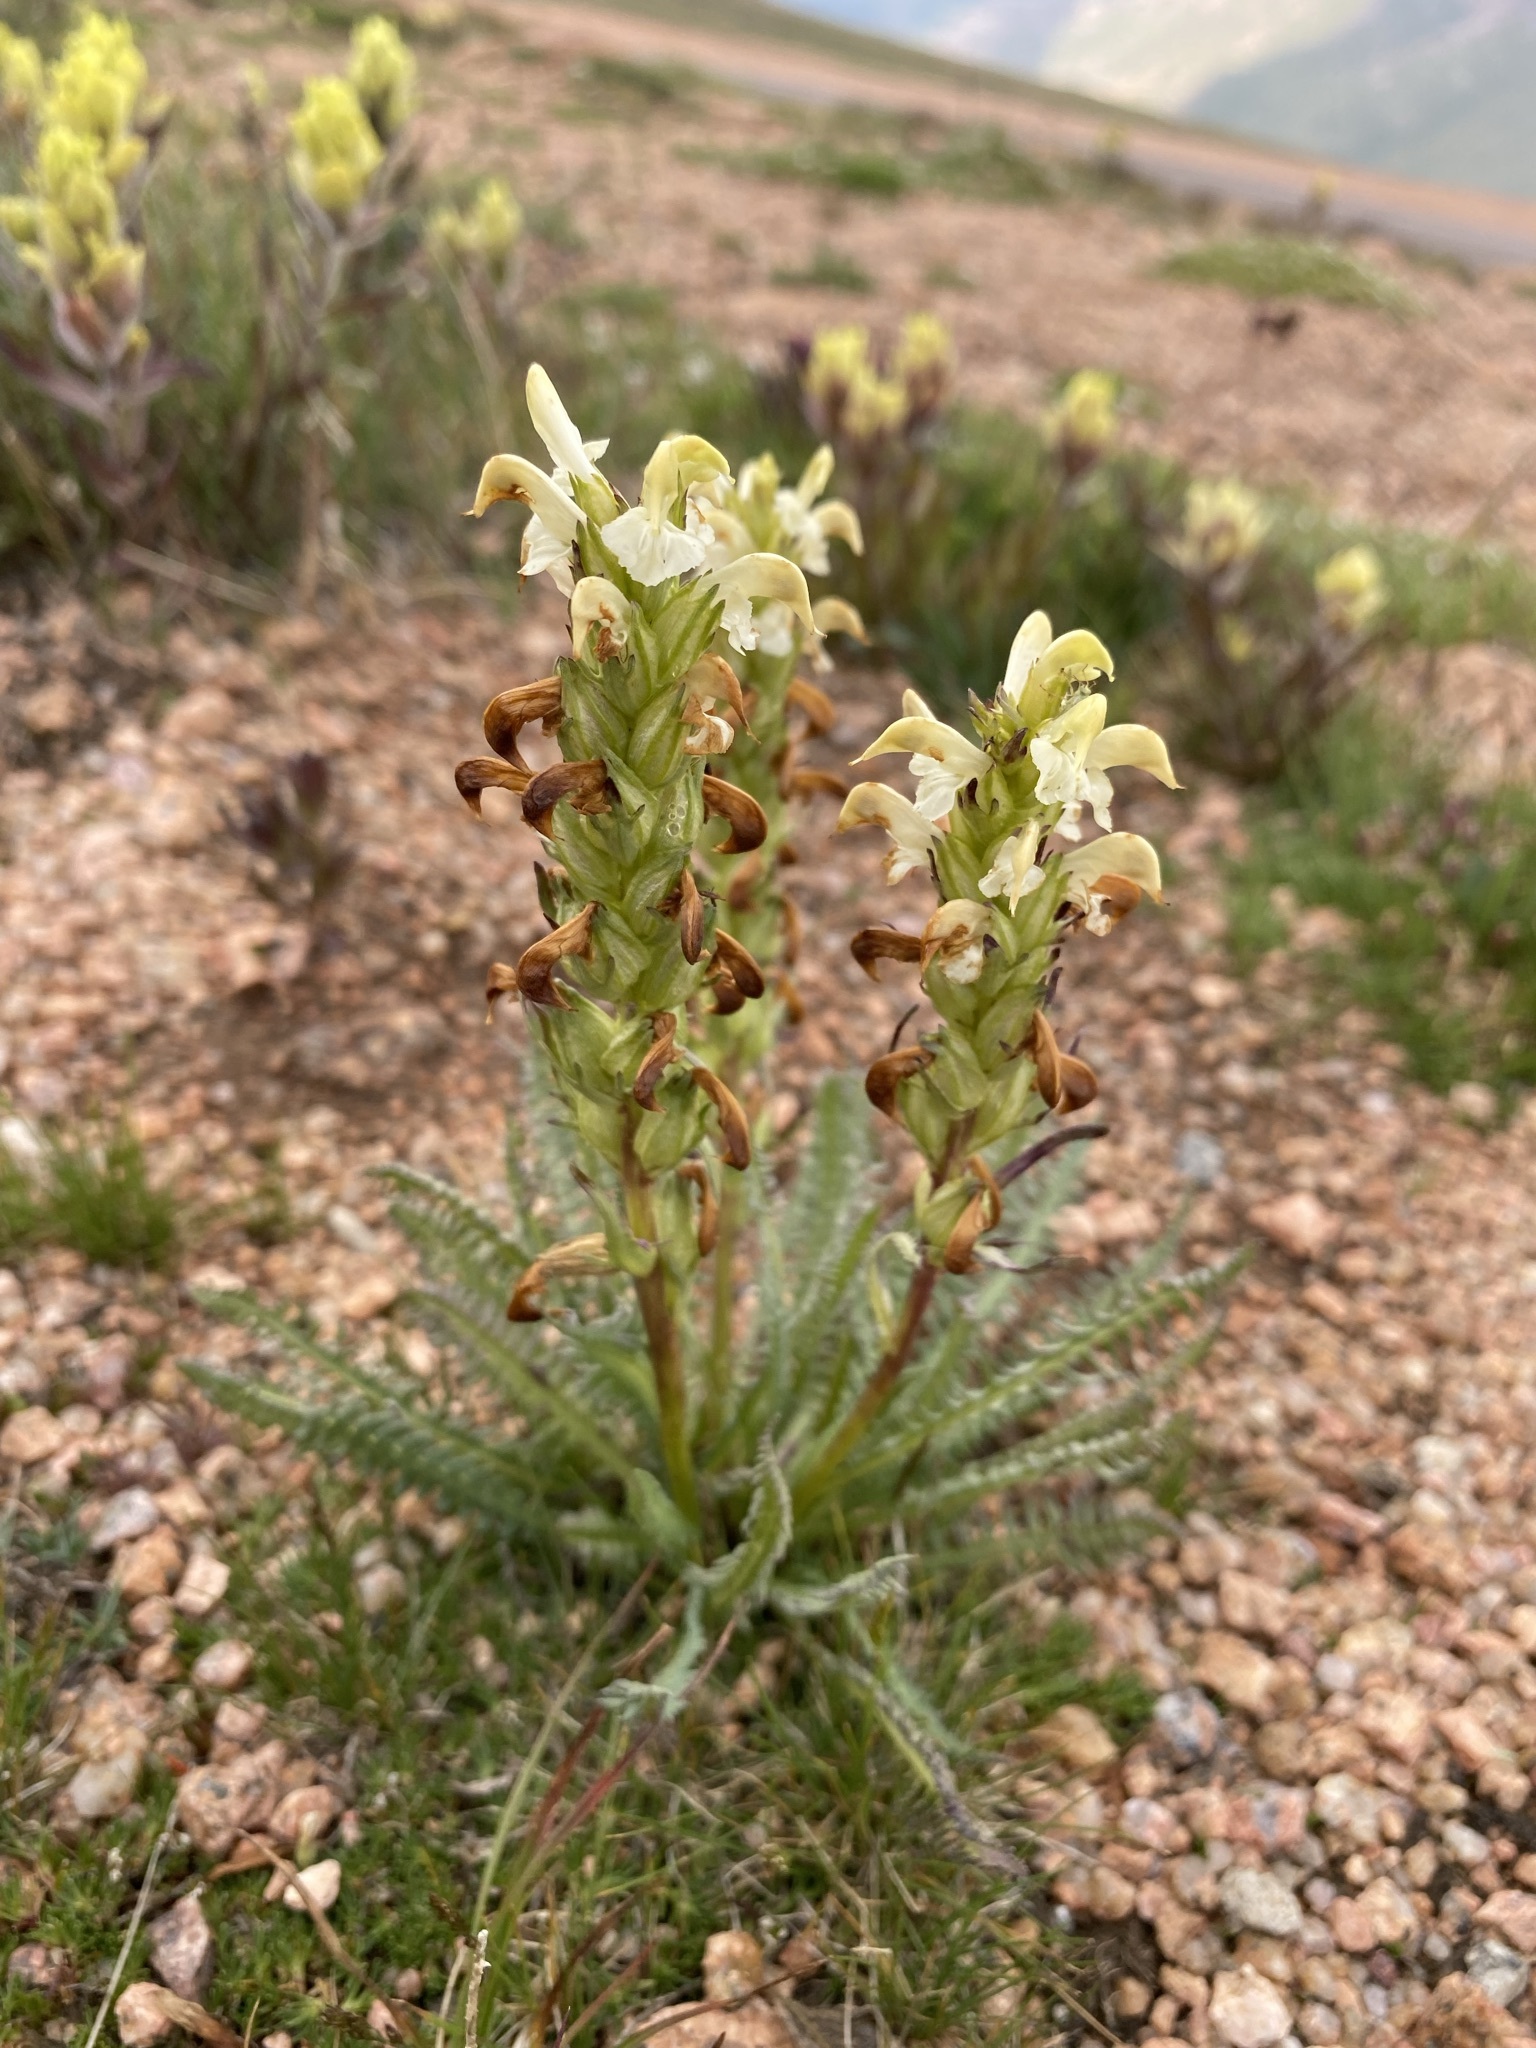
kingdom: Plantae
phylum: Tracheophyta
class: Magnoliopsida
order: Lamiales
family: Orobanchaceae
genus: Pedicularis
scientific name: Pedicularis parryi
